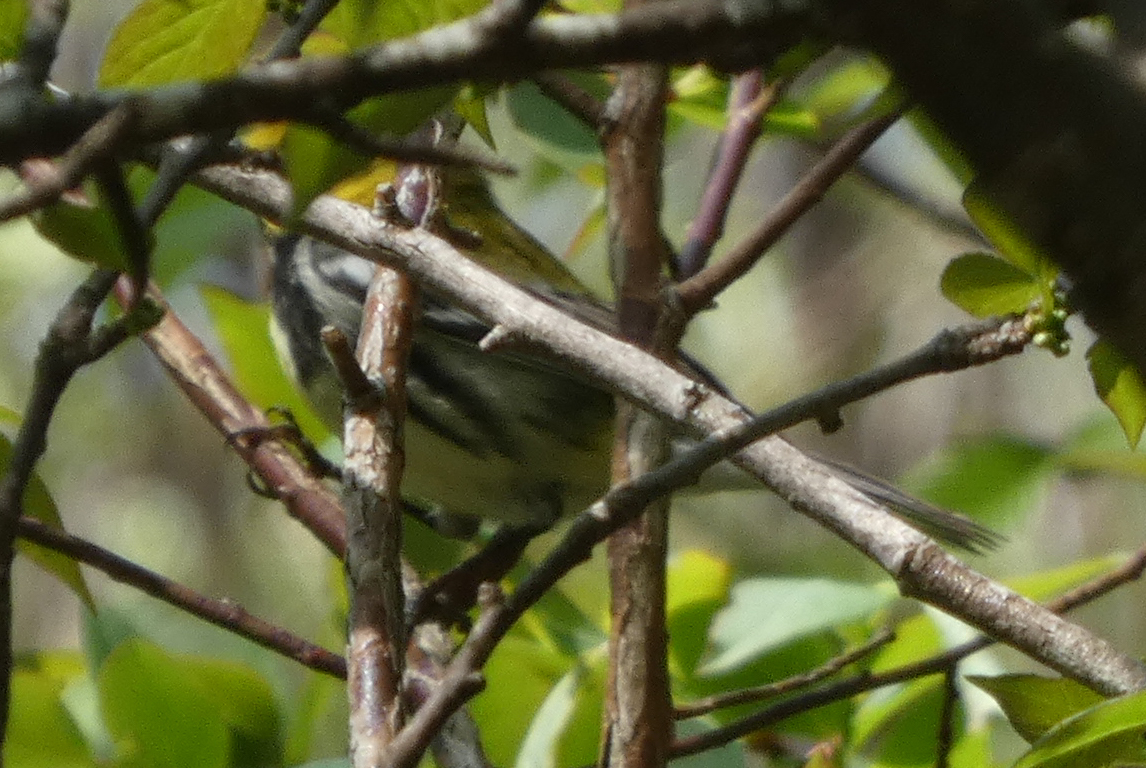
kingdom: Animalia
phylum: Chordata
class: Aves
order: Passeriformes
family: Parulidae
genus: Setophaga
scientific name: Setophaga virens
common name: Black-throated green warbler
